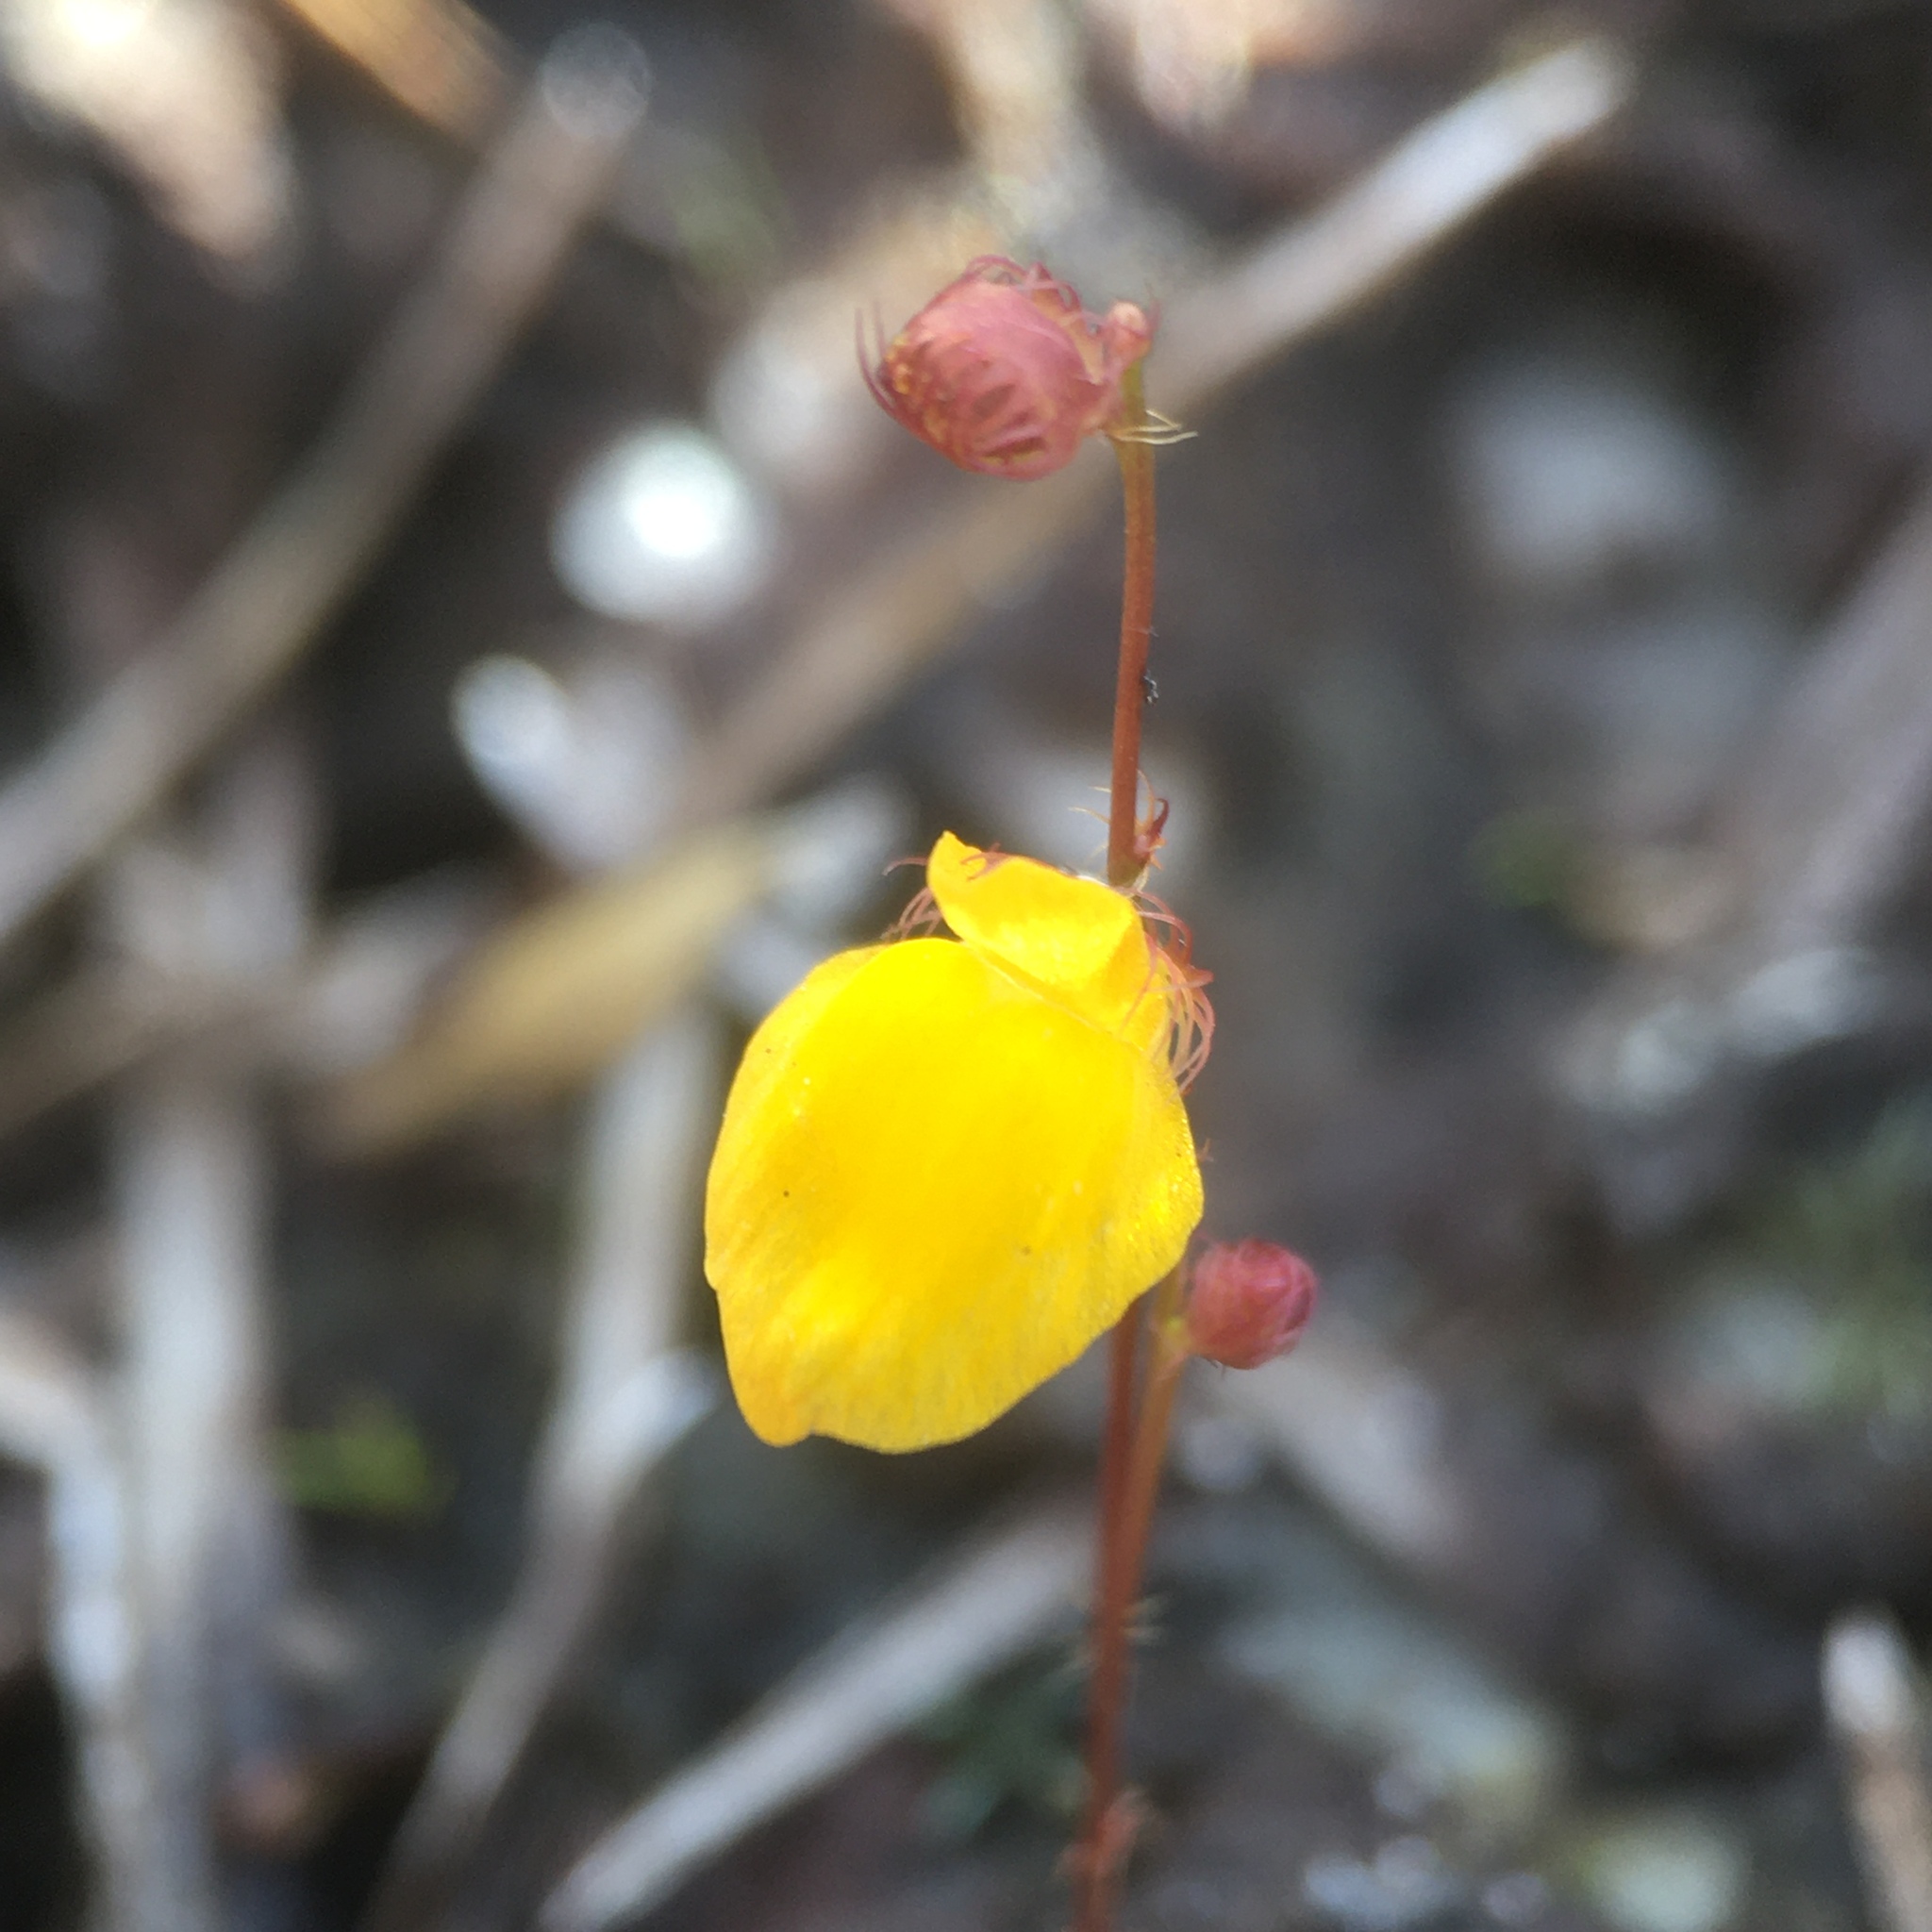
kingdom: Plantae
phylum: Tracheophyta
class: Magnoliopsida
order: Lamiales
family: Lentibulariaceae
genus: Utricularia
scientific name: Utricularia simulans
